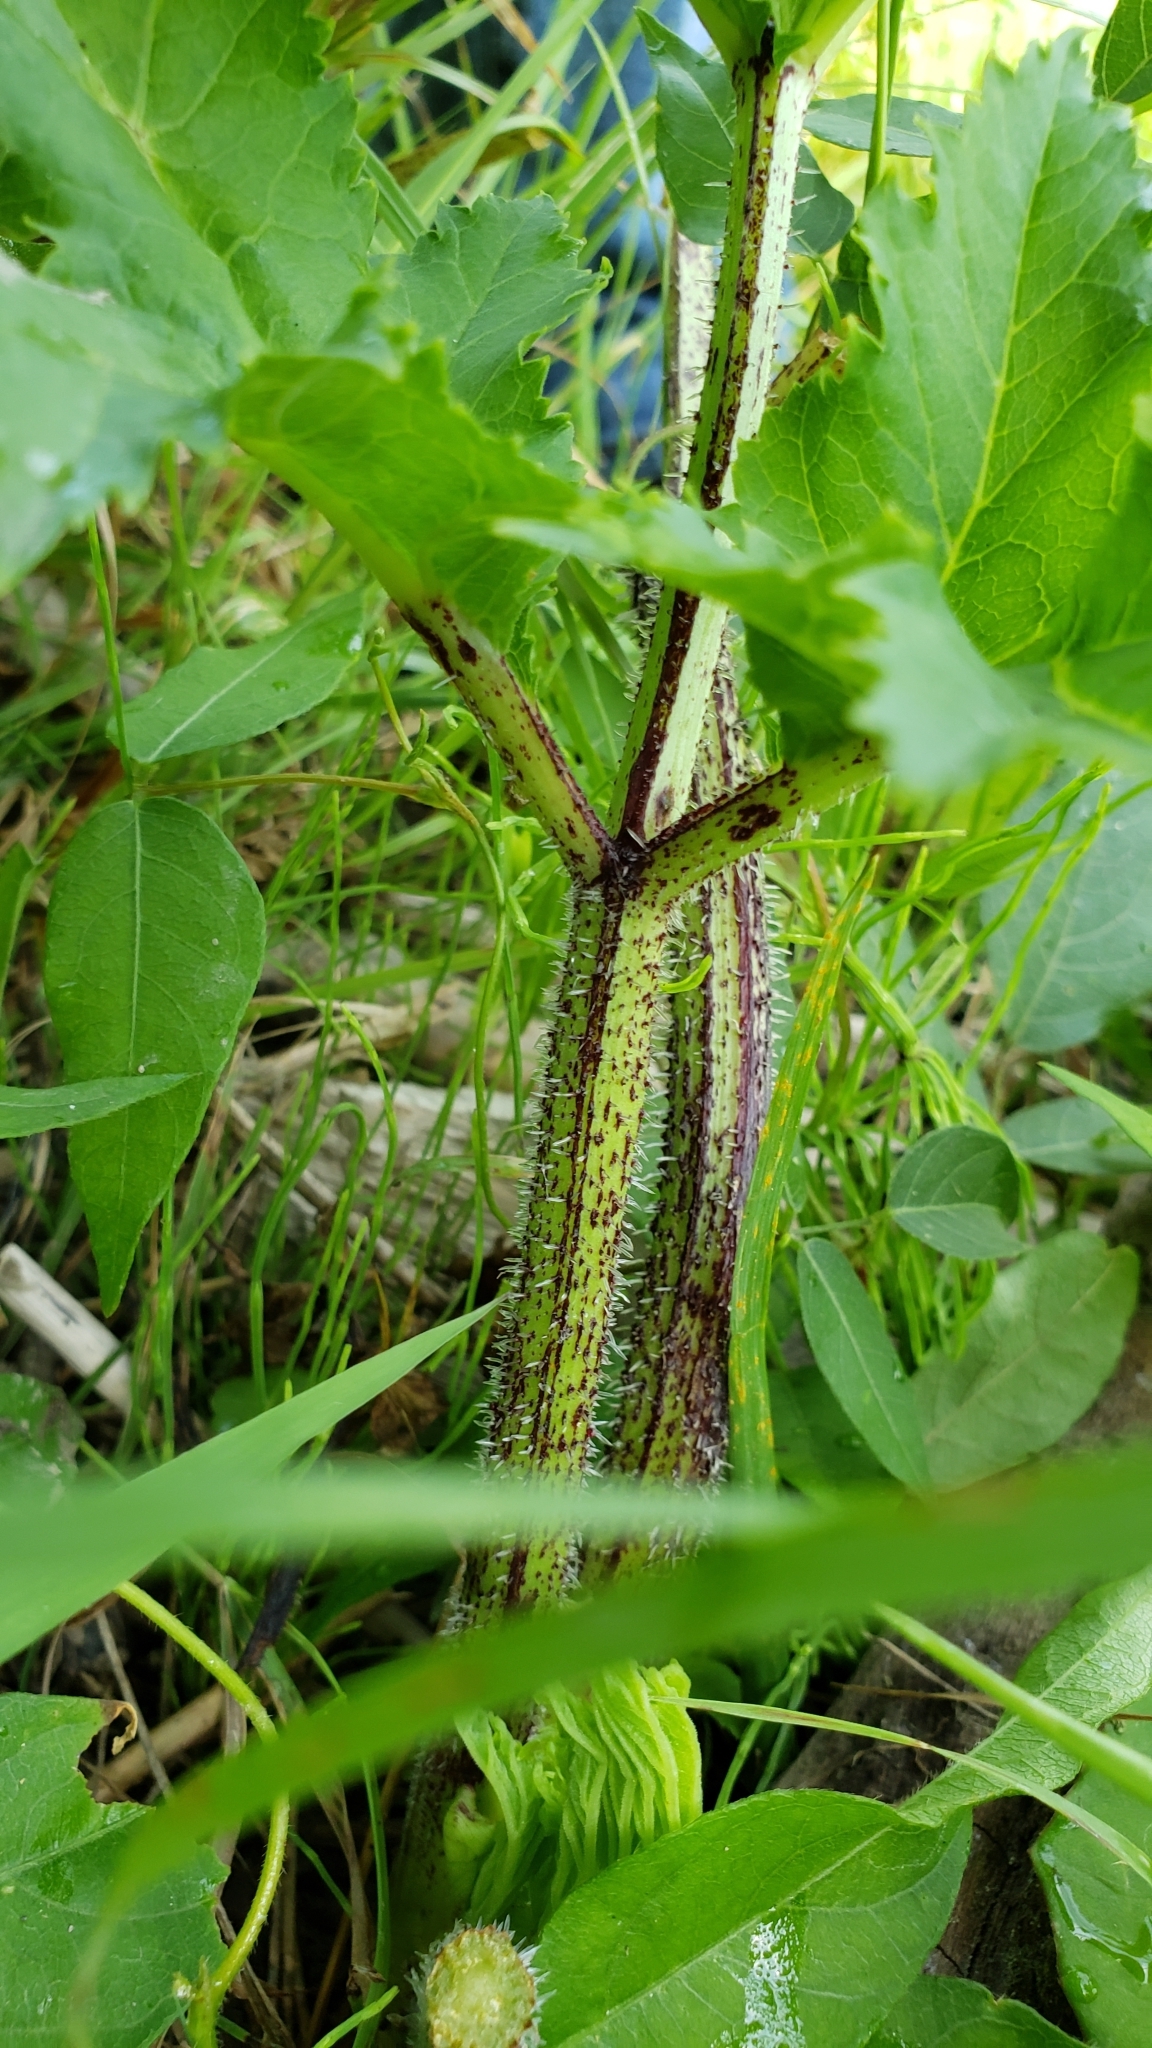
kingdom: Plantae
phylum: Tracheophyta
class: Magnoliopsida
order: Apiales
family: Apiaceae
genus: Heracleum
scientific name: Heracleum mantegazzianum
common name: Giant hogweed
